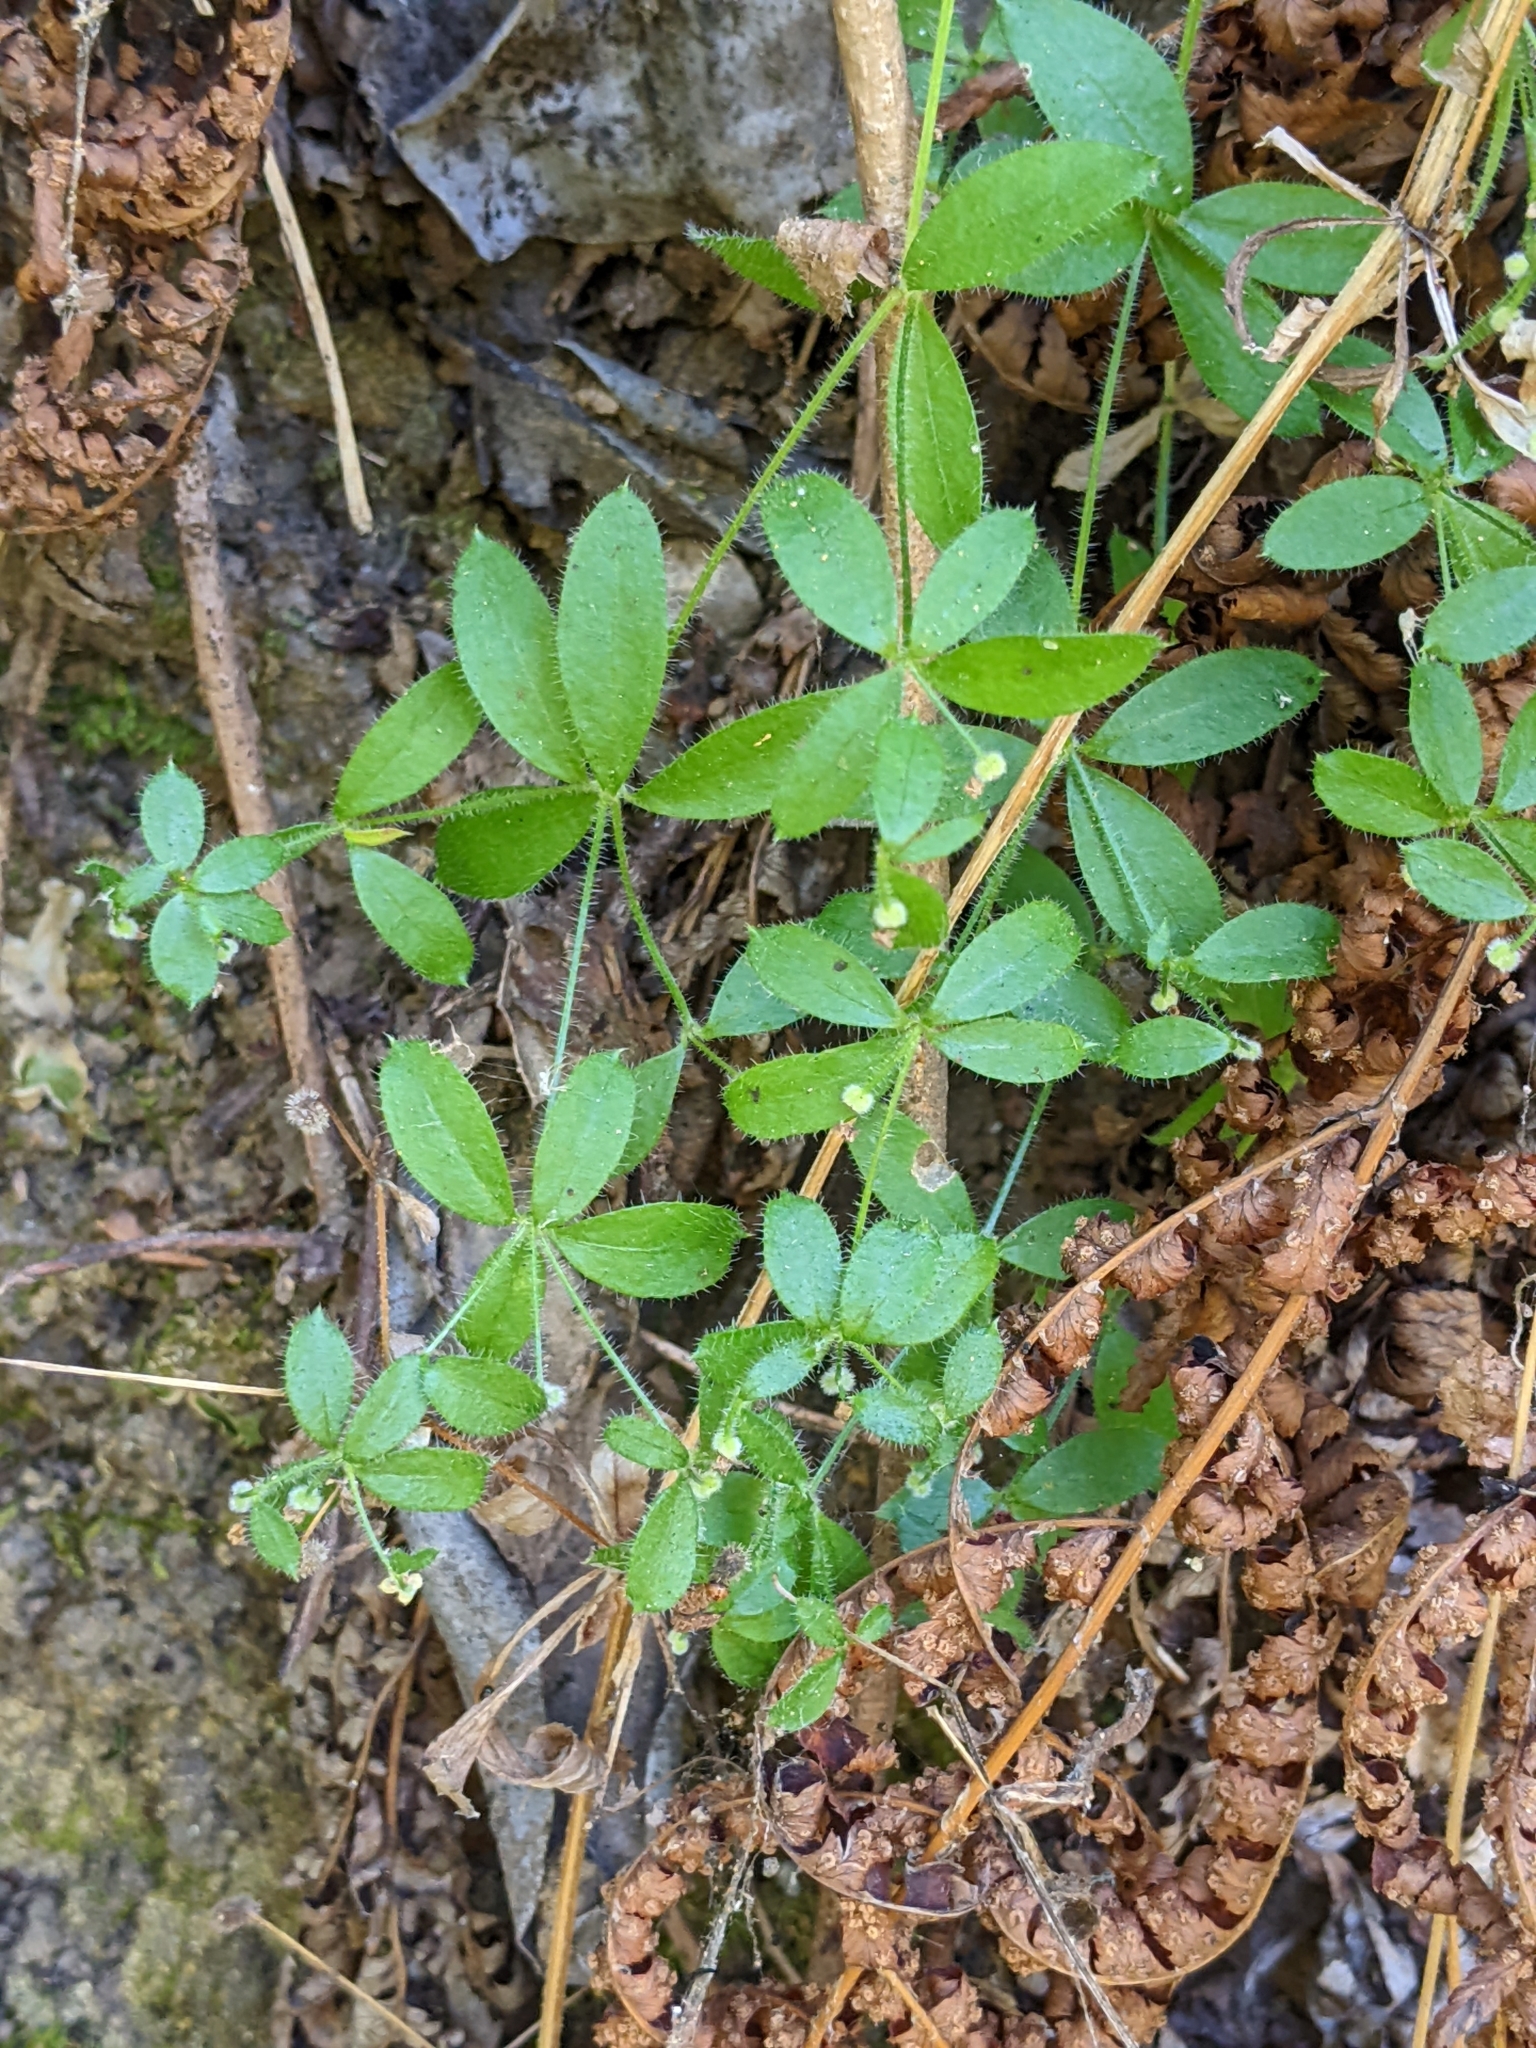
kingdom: Plantae
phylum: Tracheophyta
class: Magnoliopsida
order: Gentianales
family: Rubiaceae
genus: Galium
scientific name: Galium californicum
